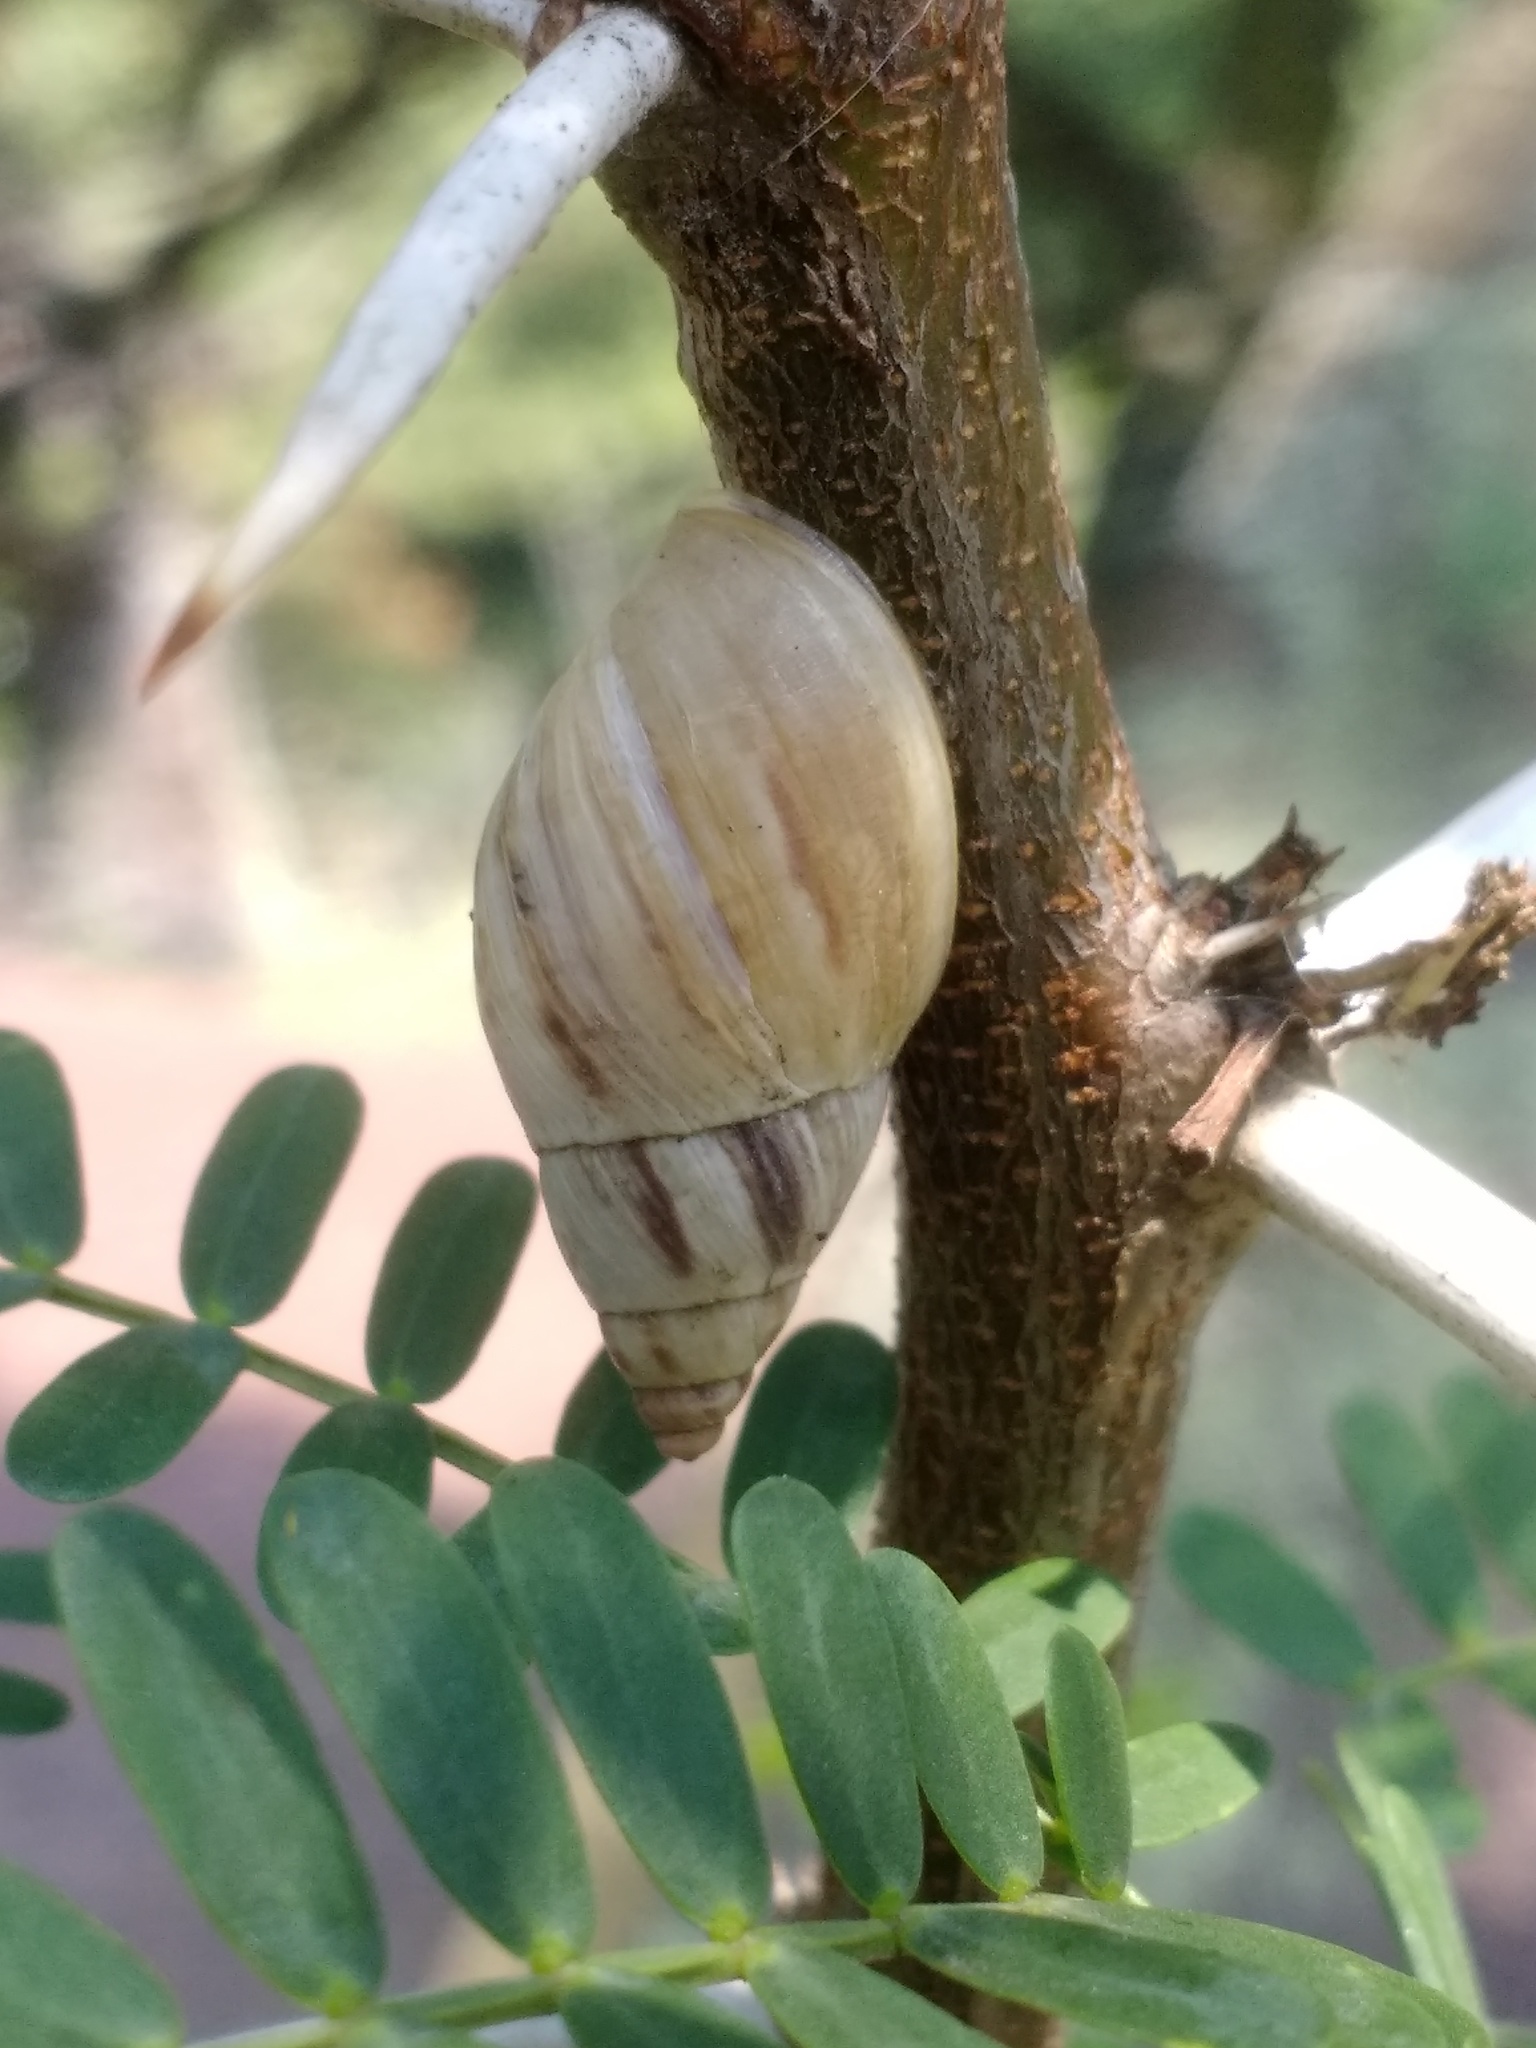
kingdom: Animalia
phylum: Mollusca
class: Gastropoda
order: Stylommatophora
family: Bulimulidae
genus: Drymaeus
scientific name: Drymaeus
